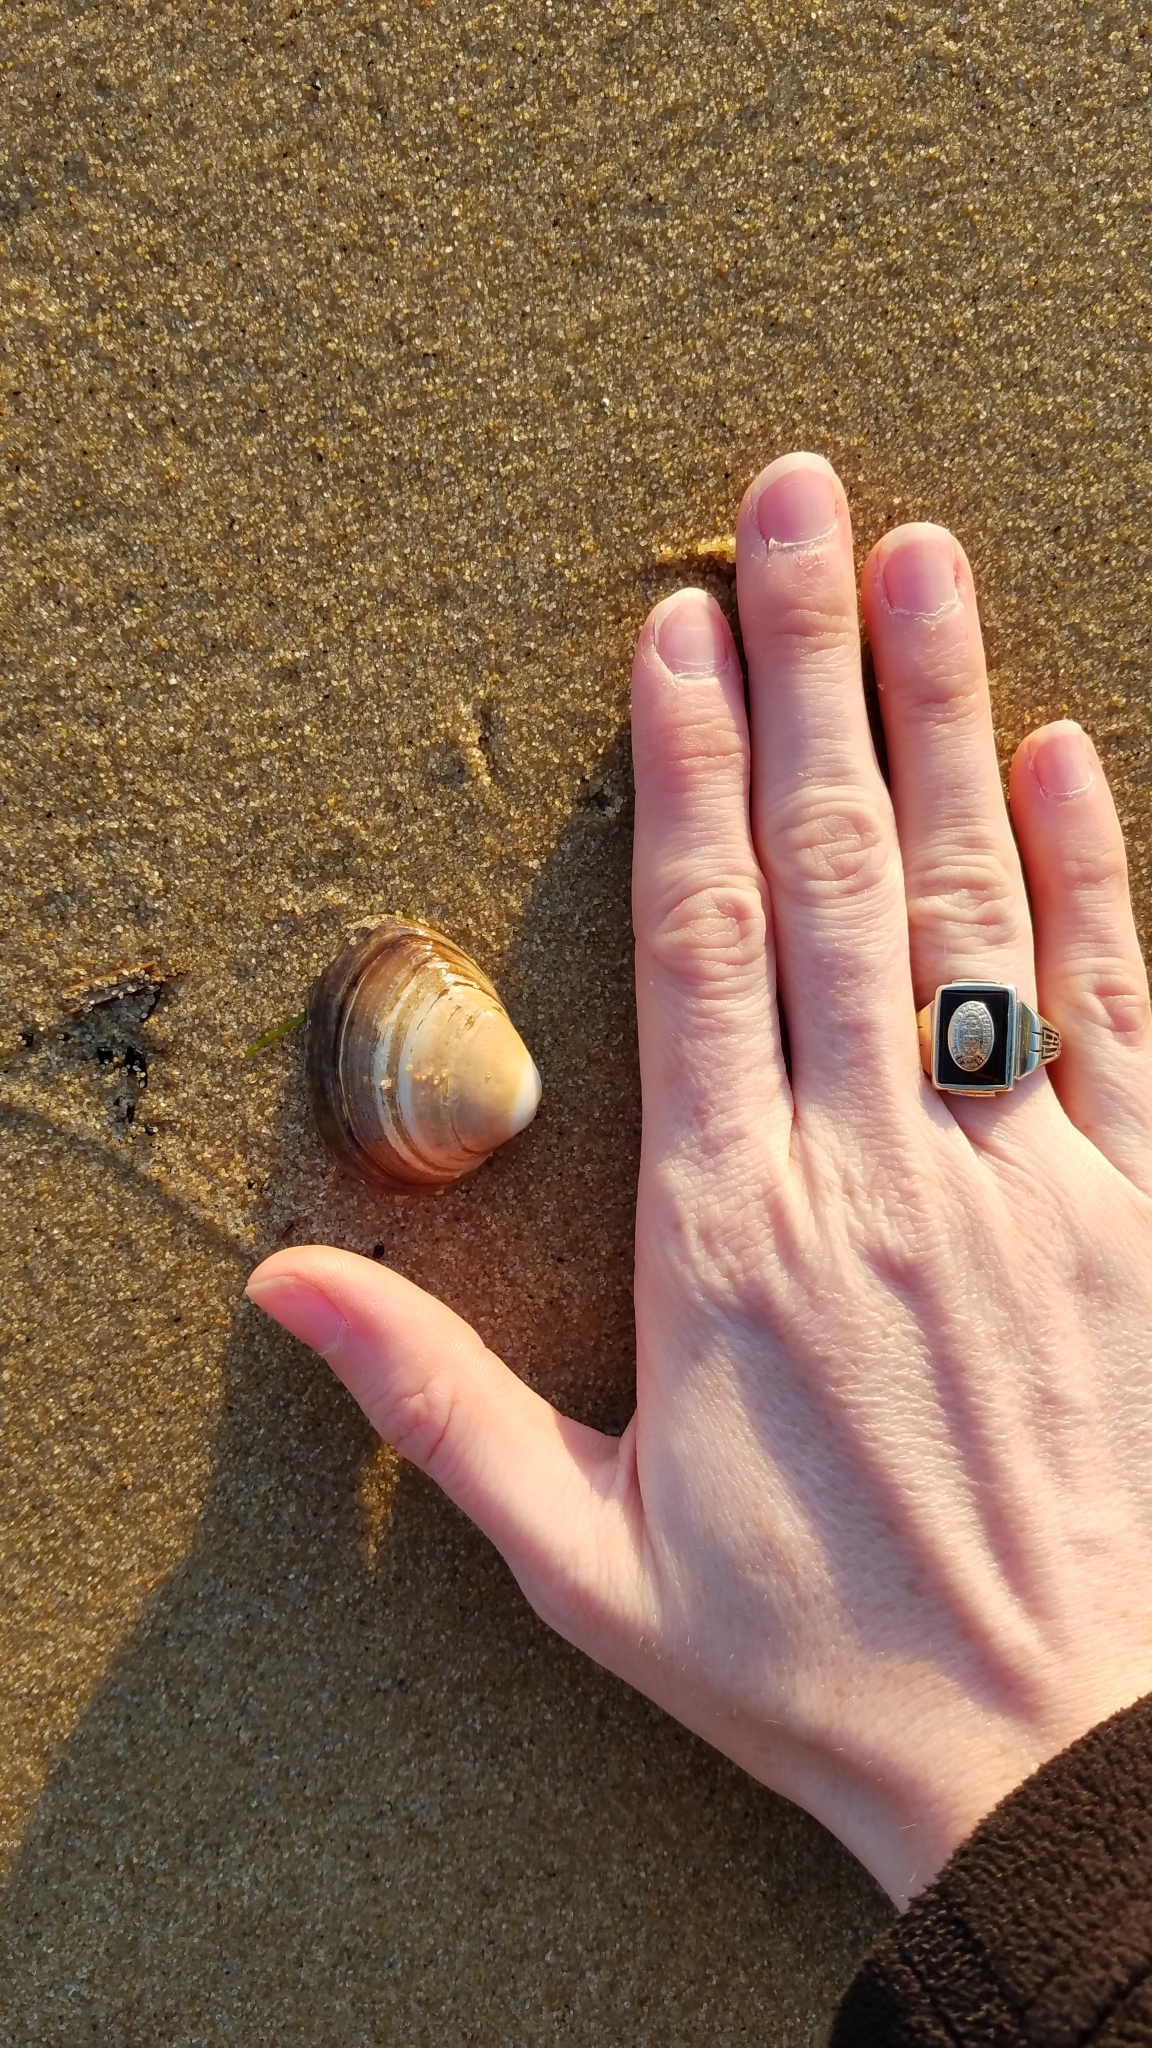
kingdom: Animalia
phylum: Mollusca
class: Bivalvia
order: Venerida
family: Mactridae
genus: Rangia
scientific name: Rangia cuneata
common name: Atlantic rangia
